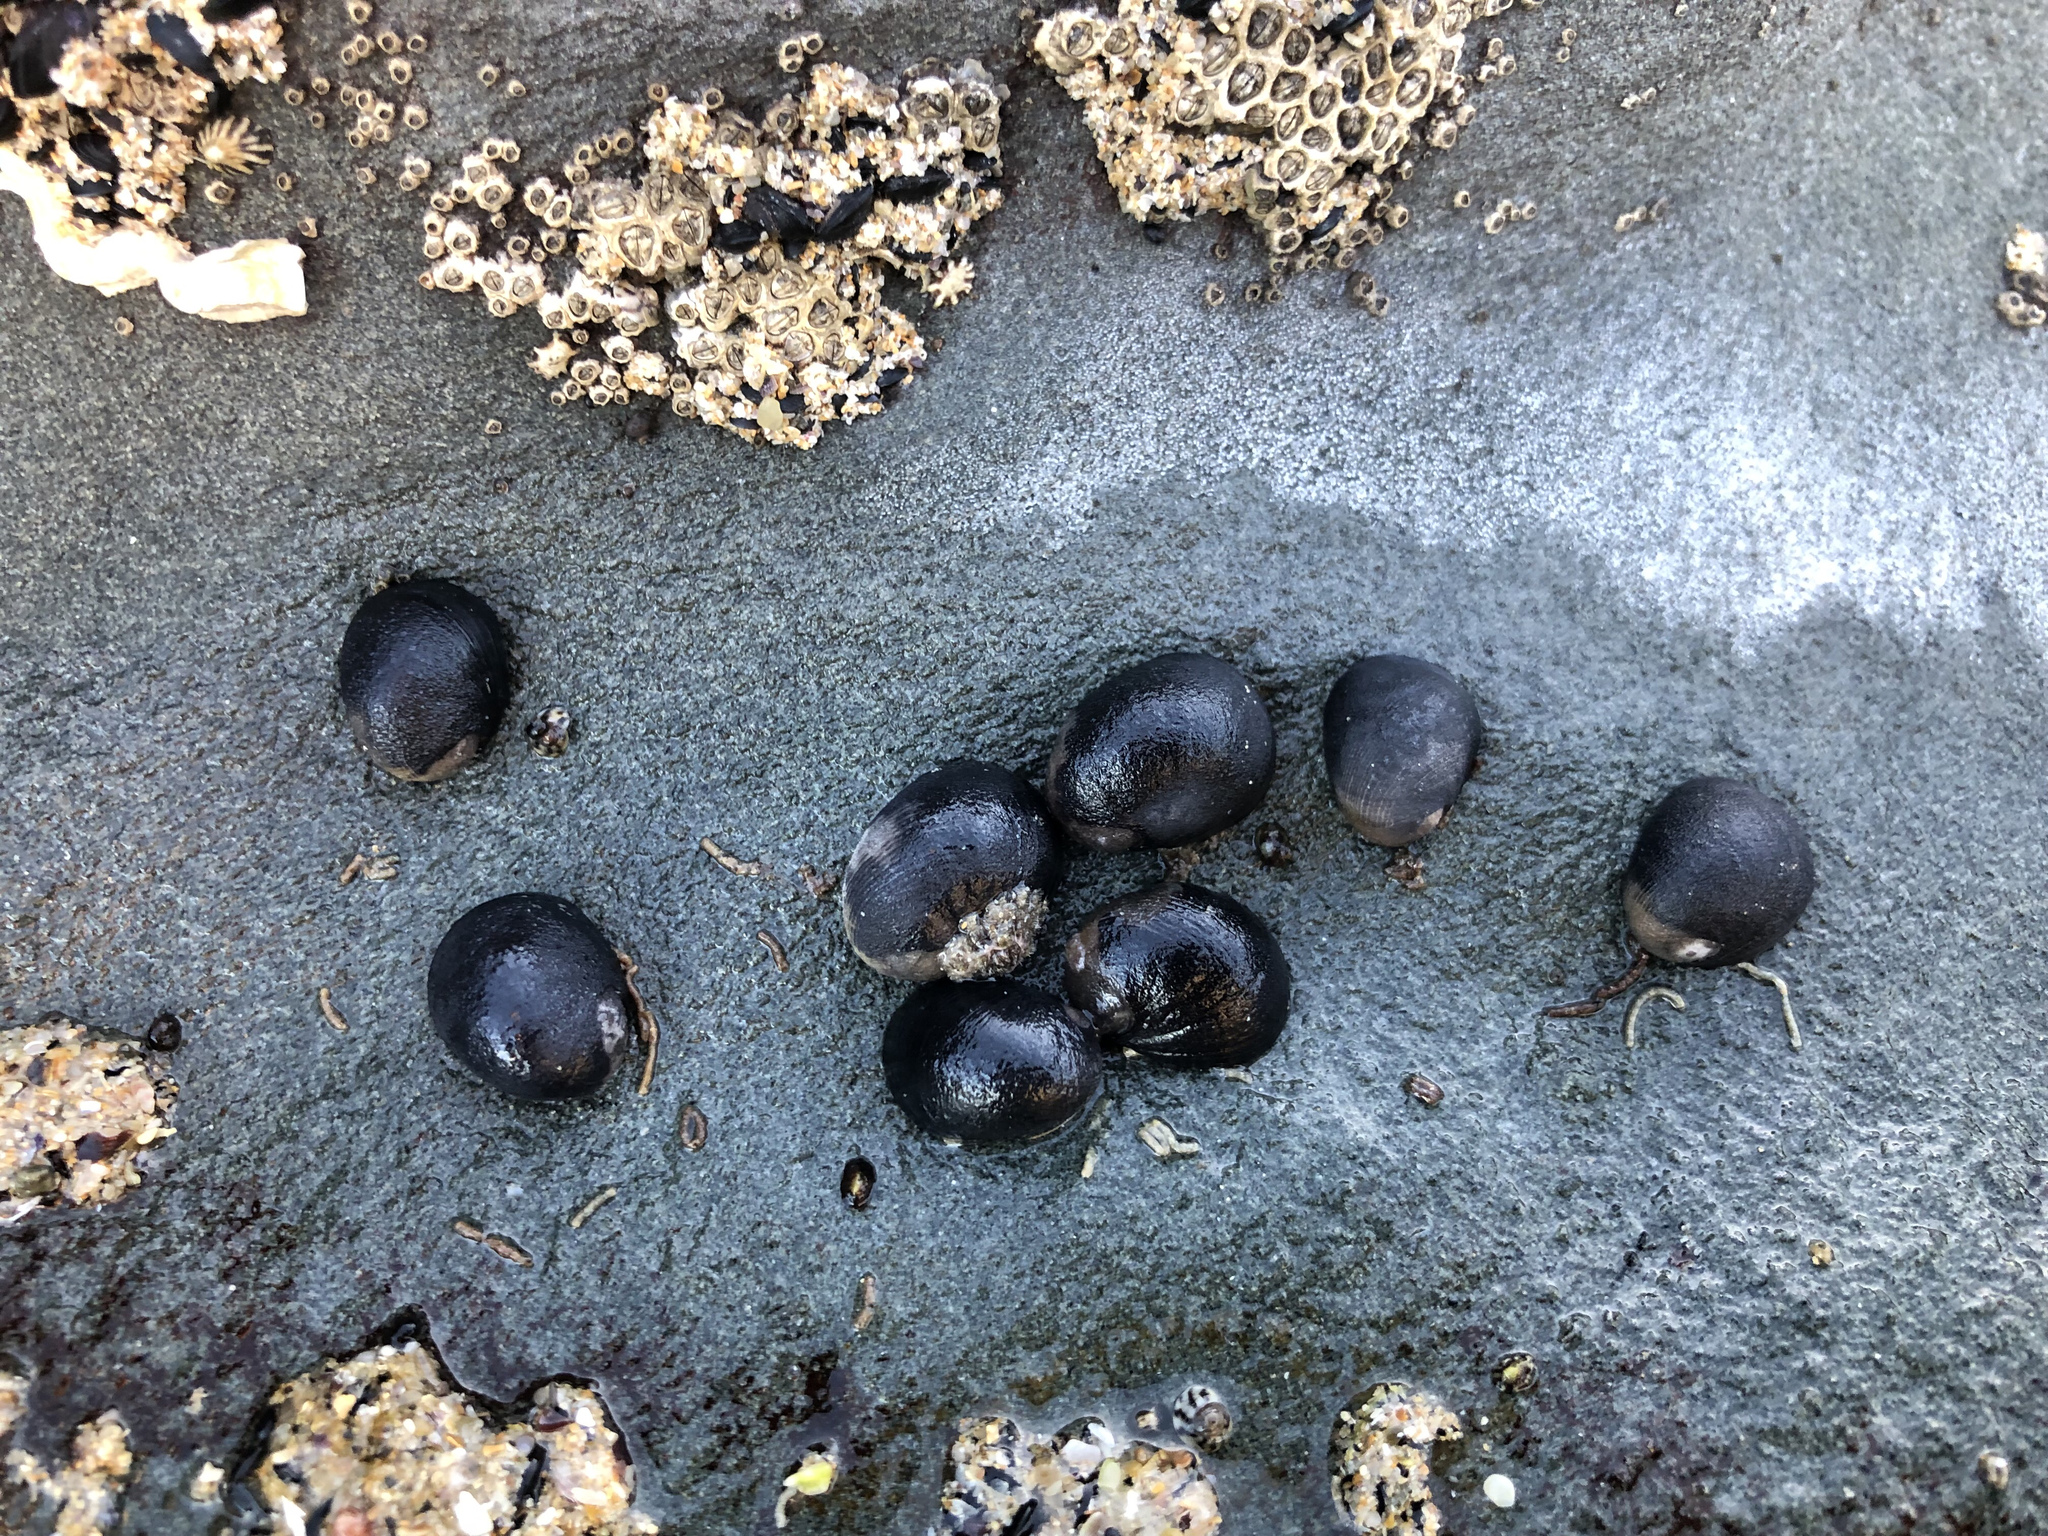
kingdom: Animalia
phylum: Mollusca
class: Gastropoda
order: Cycloneritida
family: Neritidae
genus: Nerita
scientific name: Nerita atramentosa
